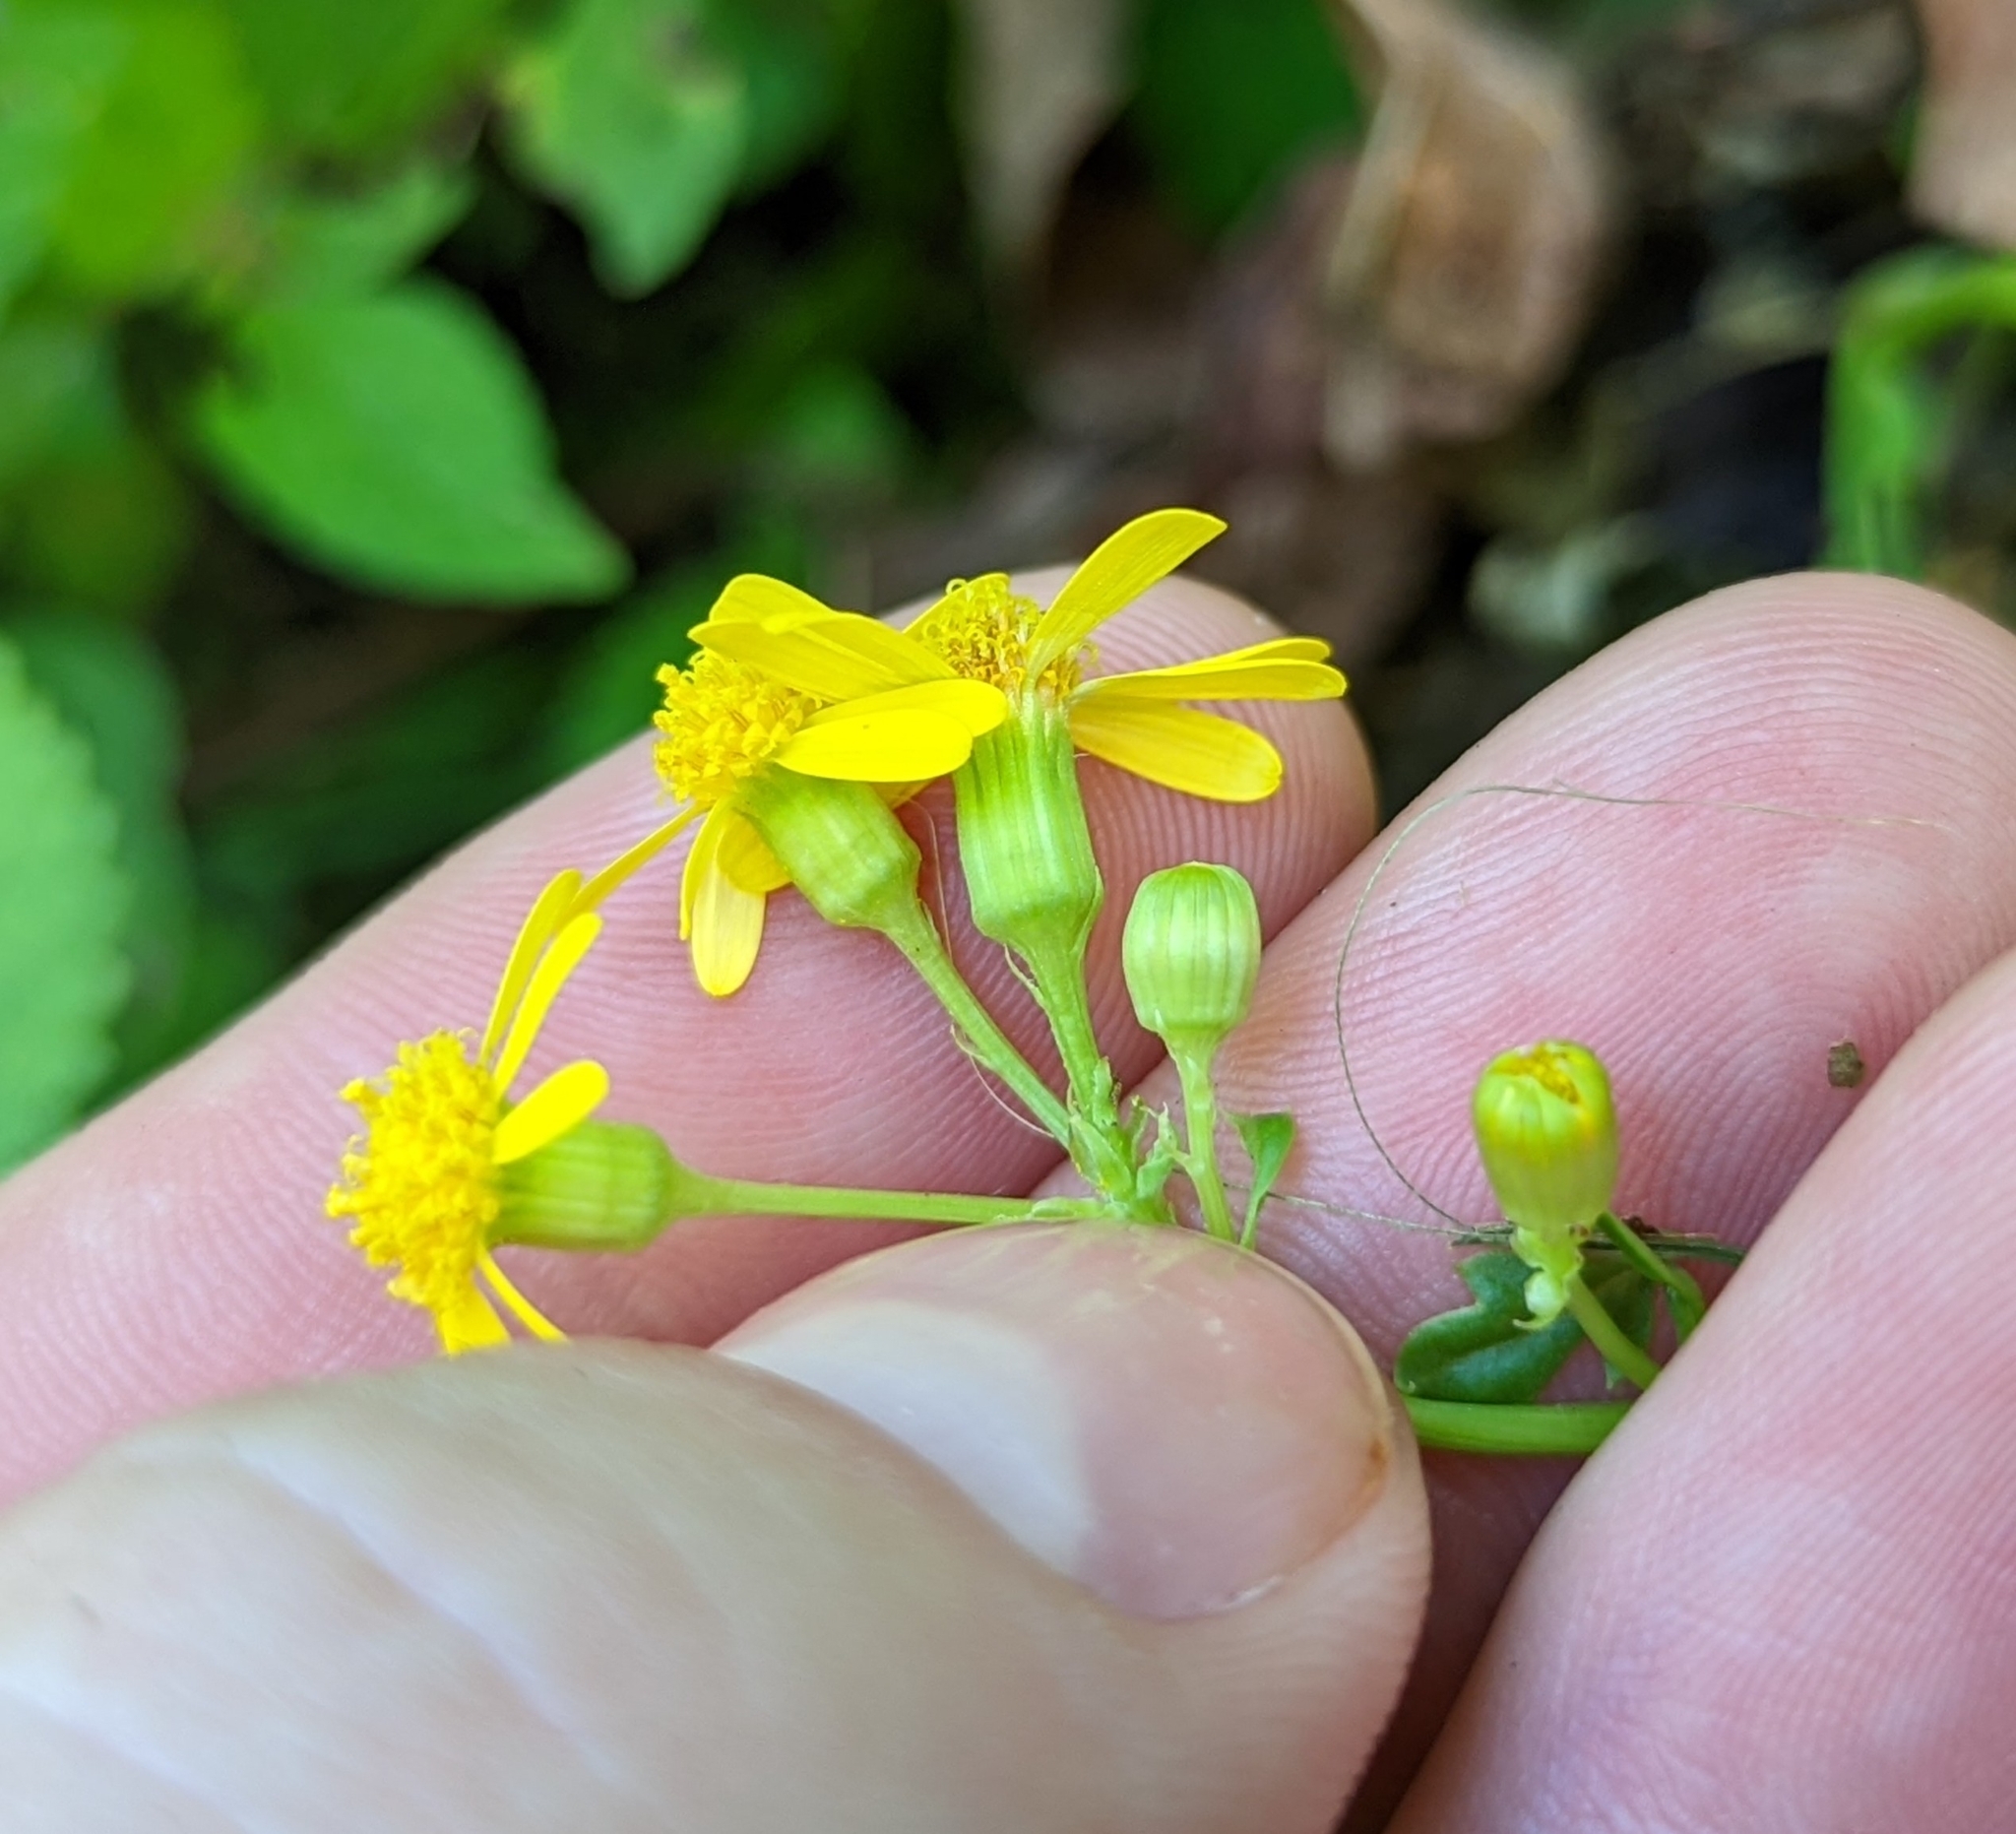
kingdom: Plantae
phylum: Tracheophyta
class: Magnoliopsida
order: Asterales
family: Asteraceae
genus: Packera
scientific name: Packera glabella
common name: Butterweed
